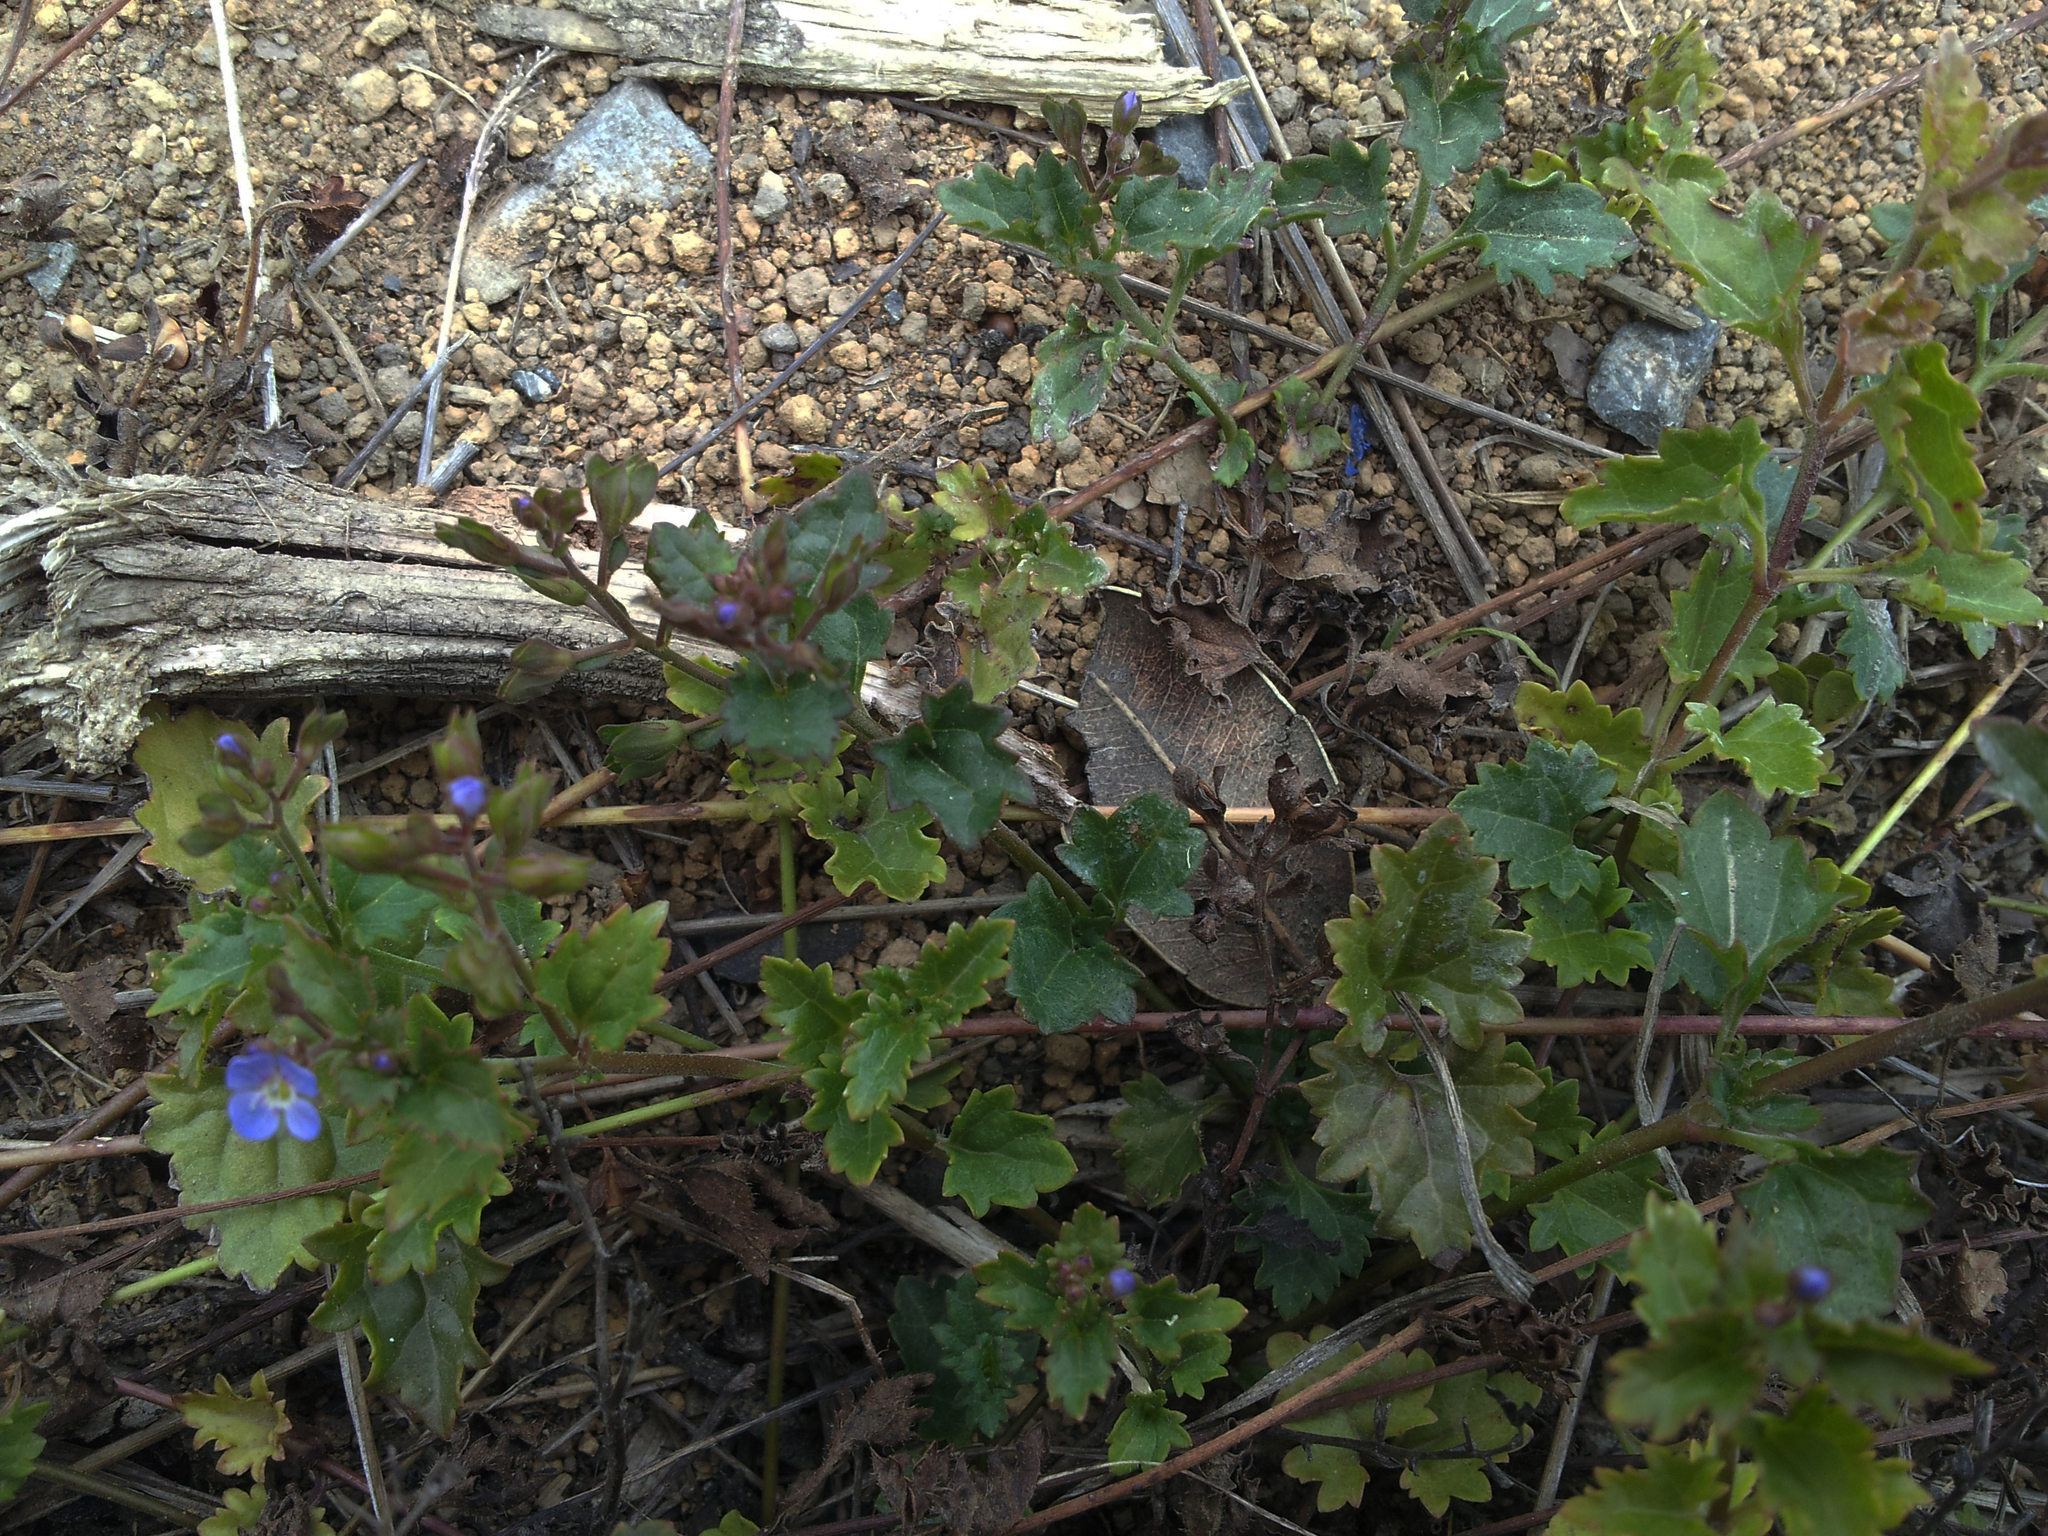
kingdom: Plantae
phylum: Tracheophyta
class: Magnoliopsida
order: Lamiales
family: Plantaginaceae
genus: Veronica
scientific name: Veronica plebeia
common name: Speedwell
